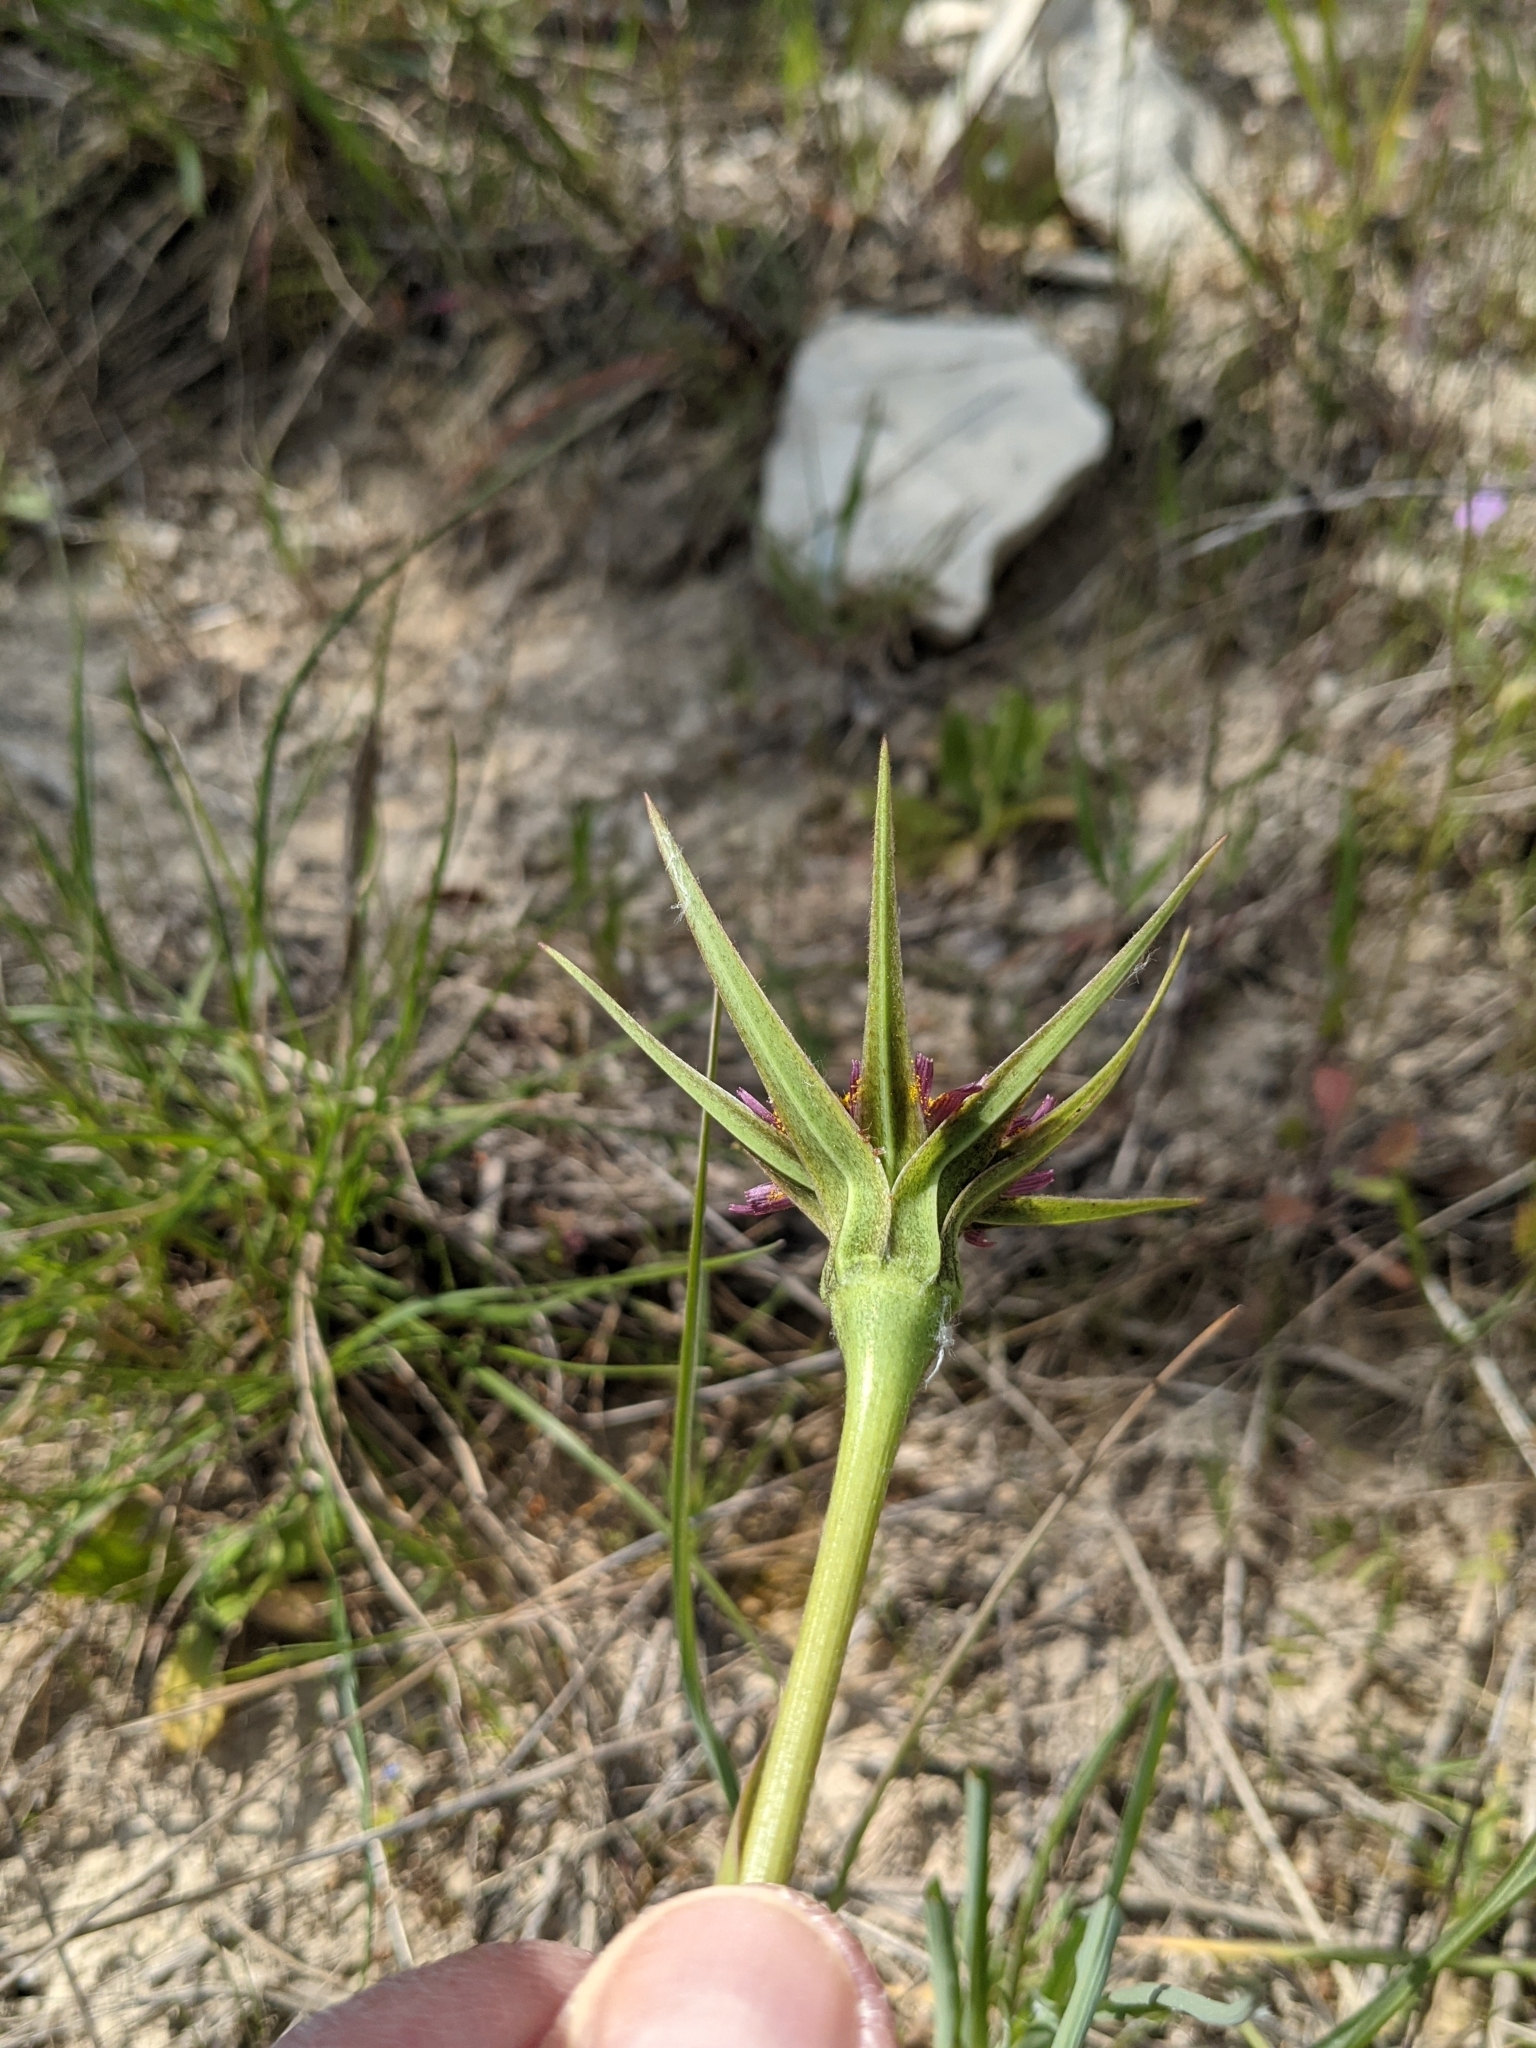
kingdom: Plantae
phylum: Tracheophyta
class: Magnoliopsida
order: Asterales
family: Asteraceae
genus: Tragopogon
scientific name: Tragopogon porrifolius
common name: Salsify
